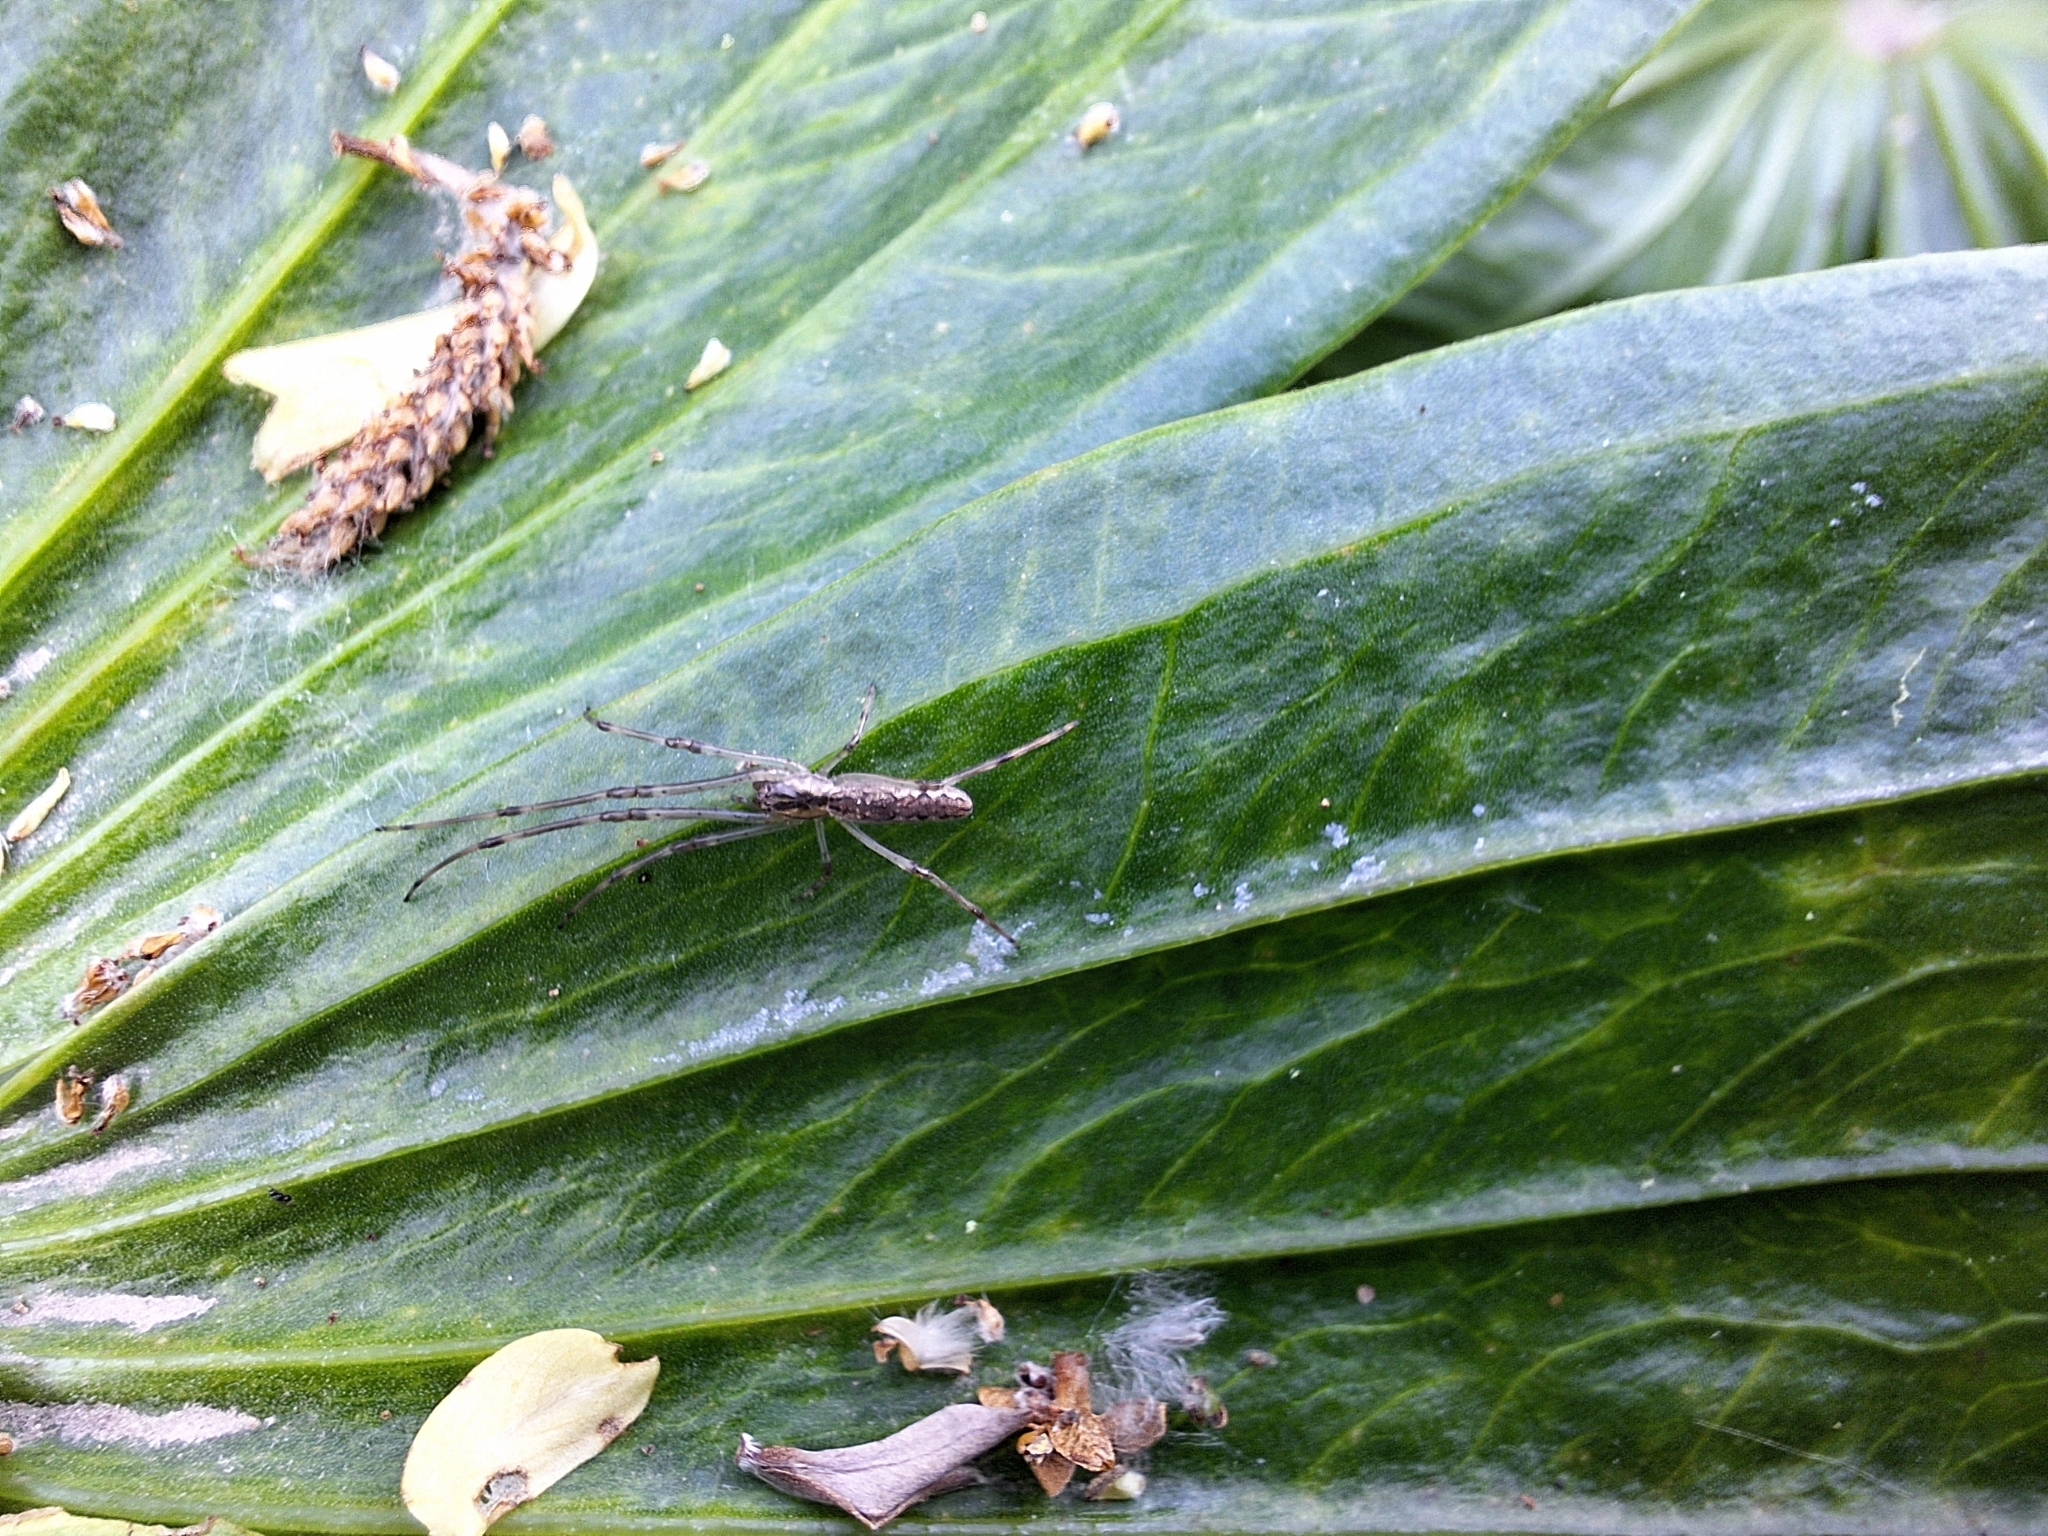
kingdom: Animalia
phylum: Arthropoda
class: Arachnida
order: Araneae
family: Tetragnathidae
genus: Tetragnatha
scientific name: Tetragnatha
